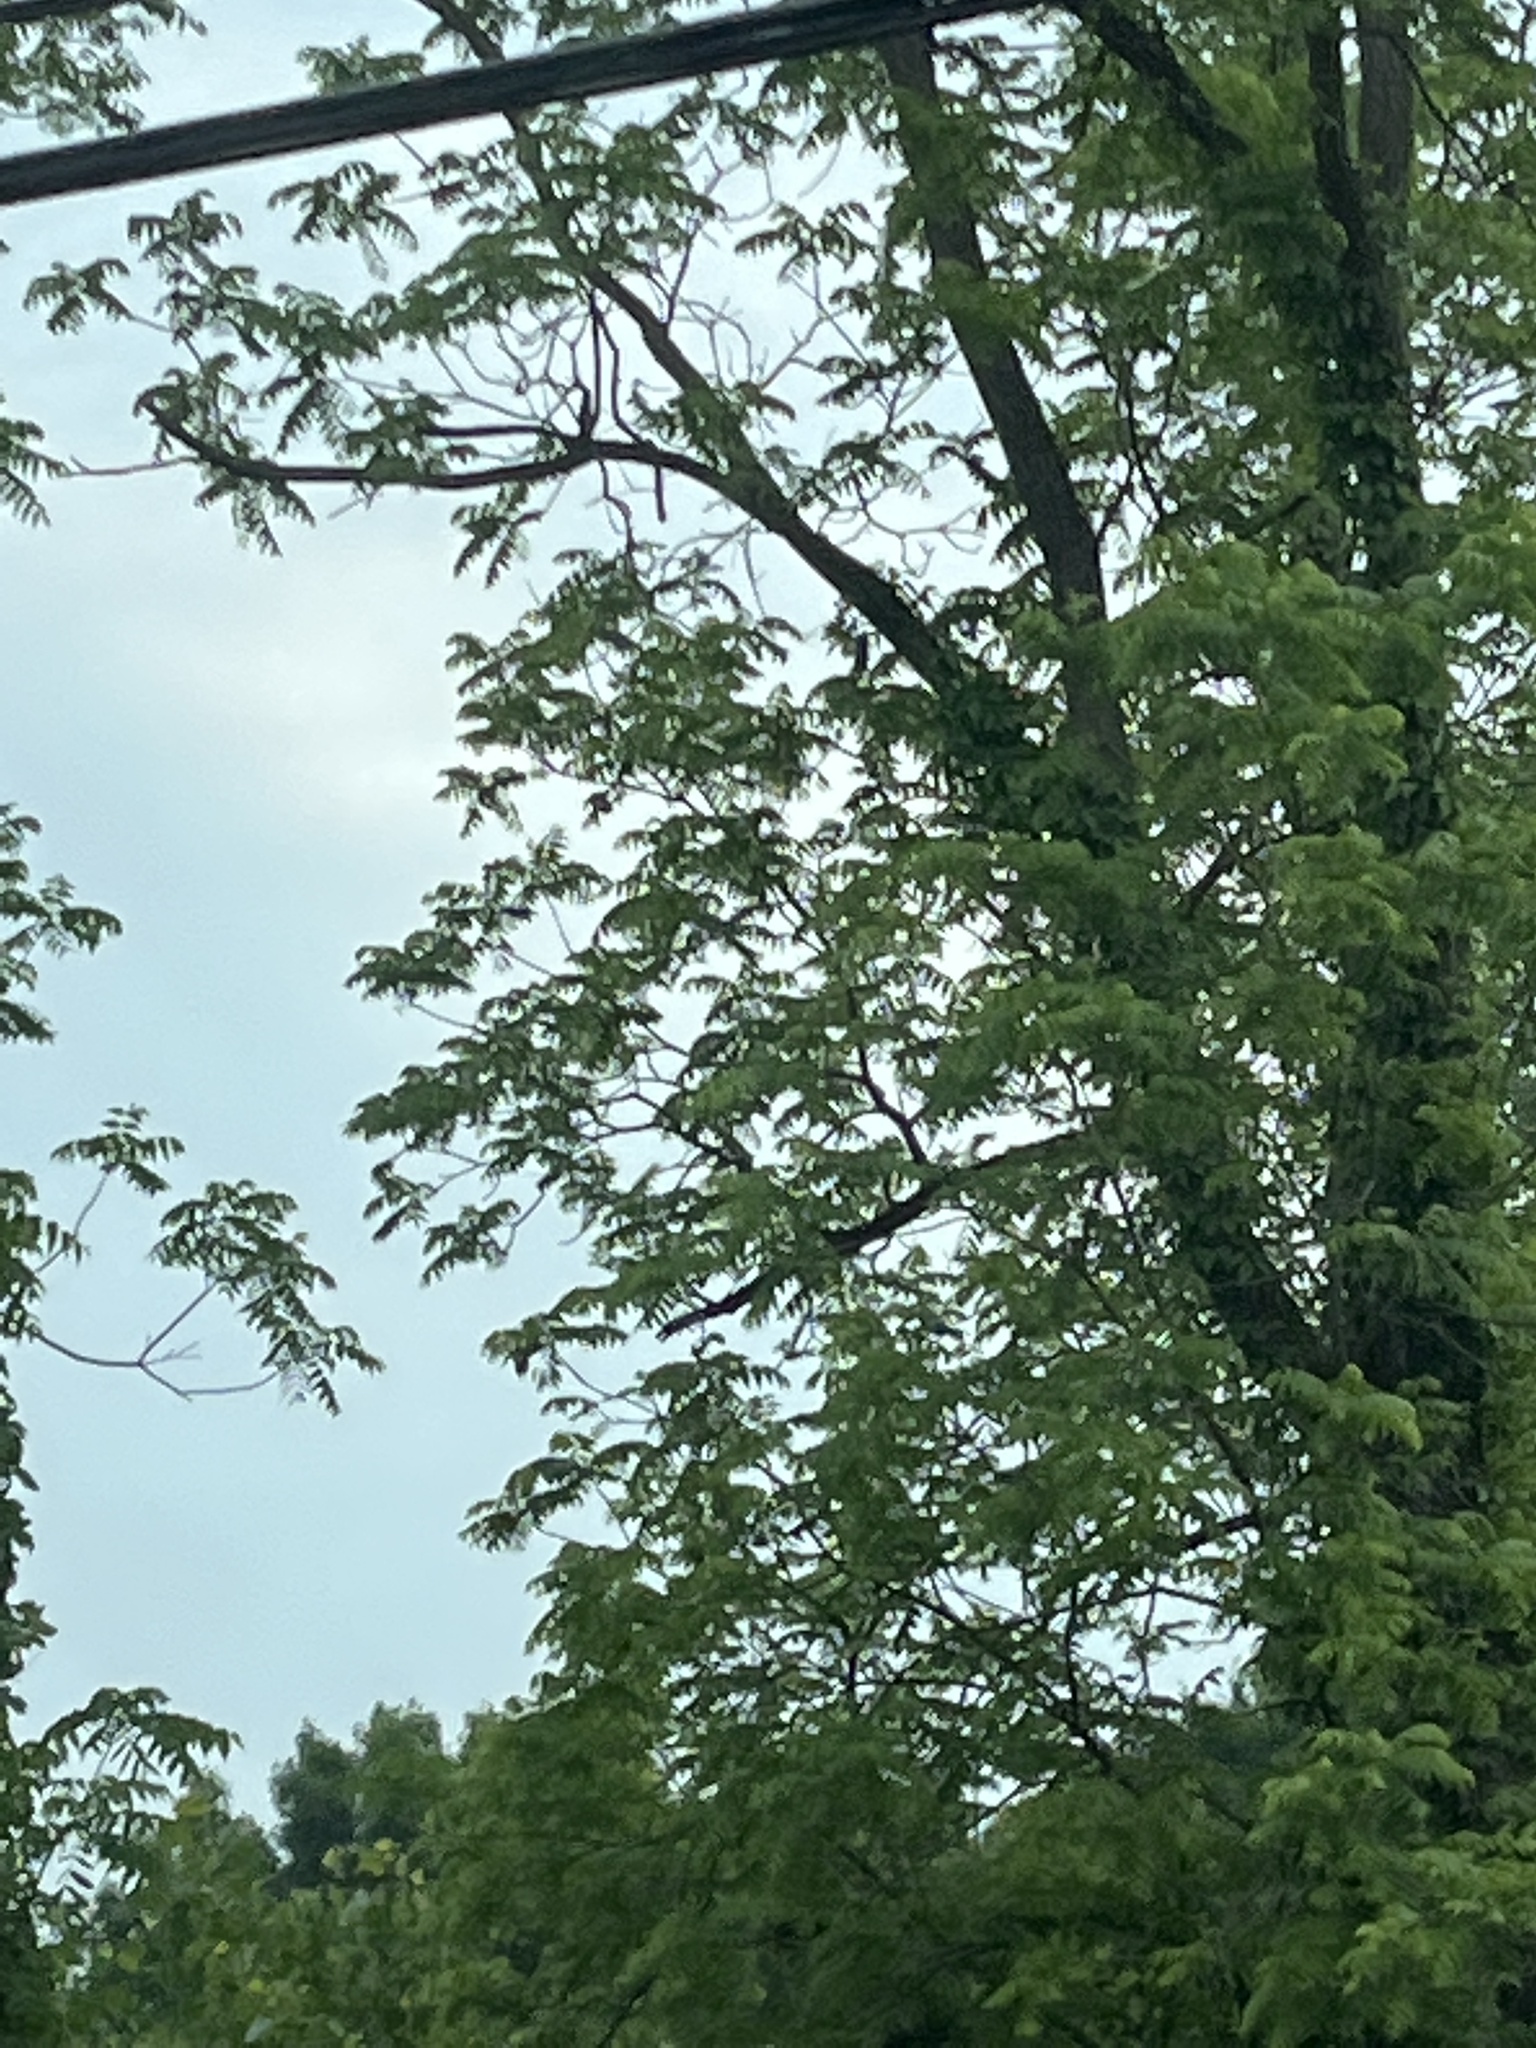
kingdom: Plantae
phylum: Tracheophyta
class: Magnoliopsida
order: Fabales
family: Fabaceae
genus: Robinia
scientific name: Robinia pseudoacacia
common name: Black locust
